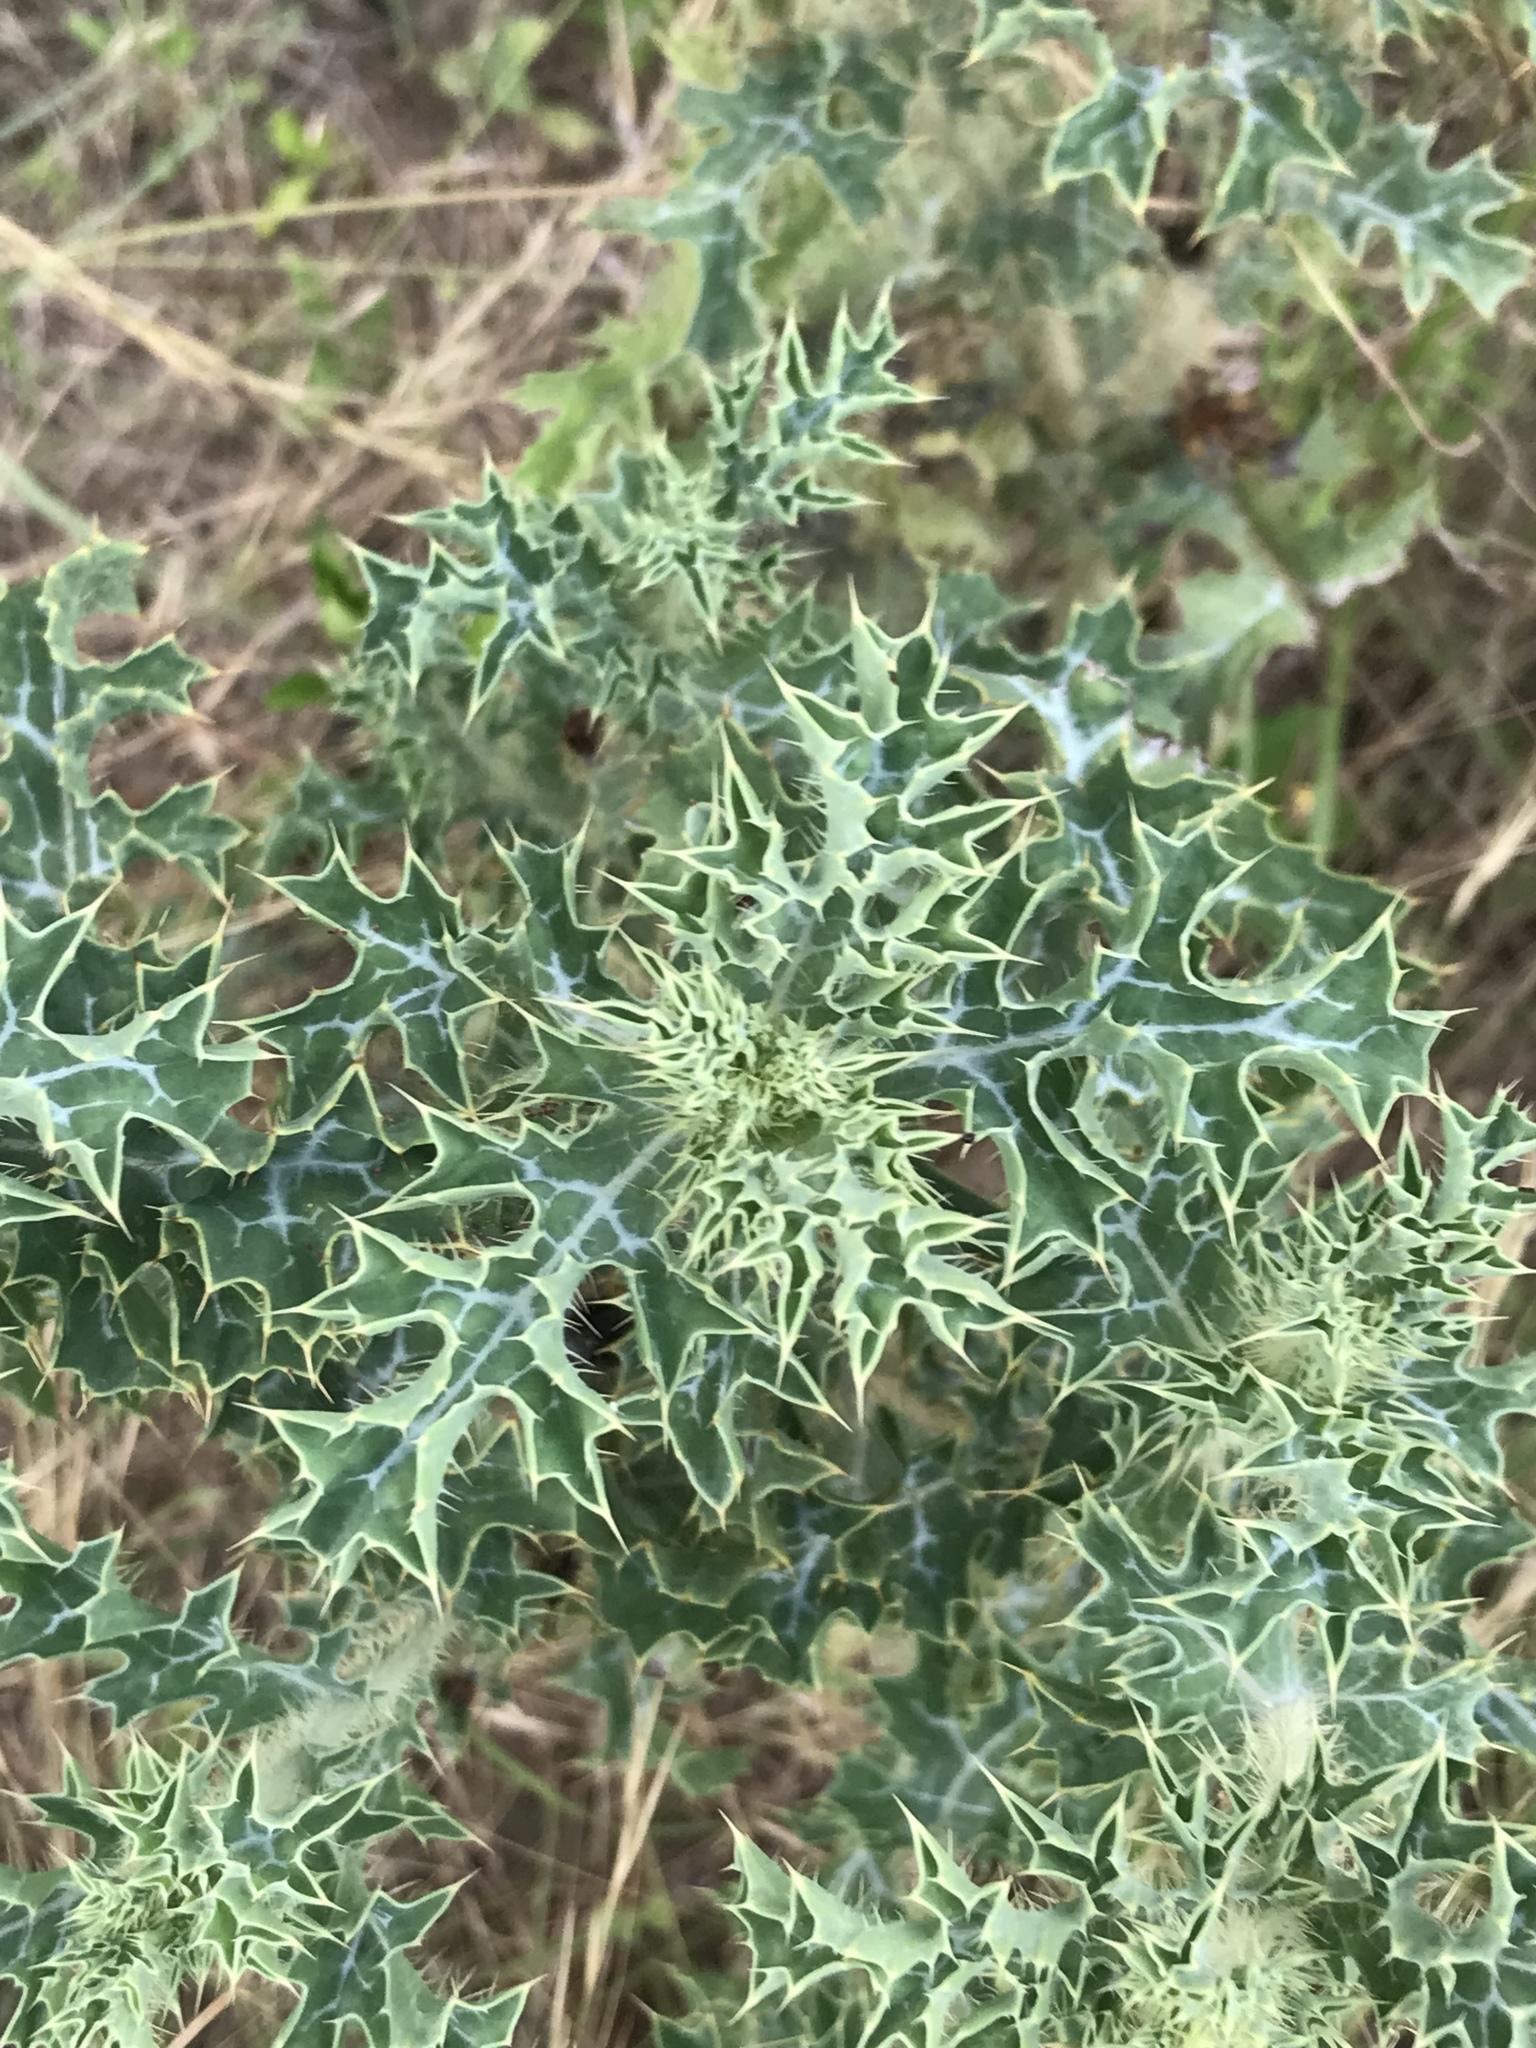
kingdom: Plantae
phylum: Tracheophyta
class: Magnoliopsida
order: Ranunculales
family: Papaveraceae
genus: Argemone
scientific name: Argemone albiflora
